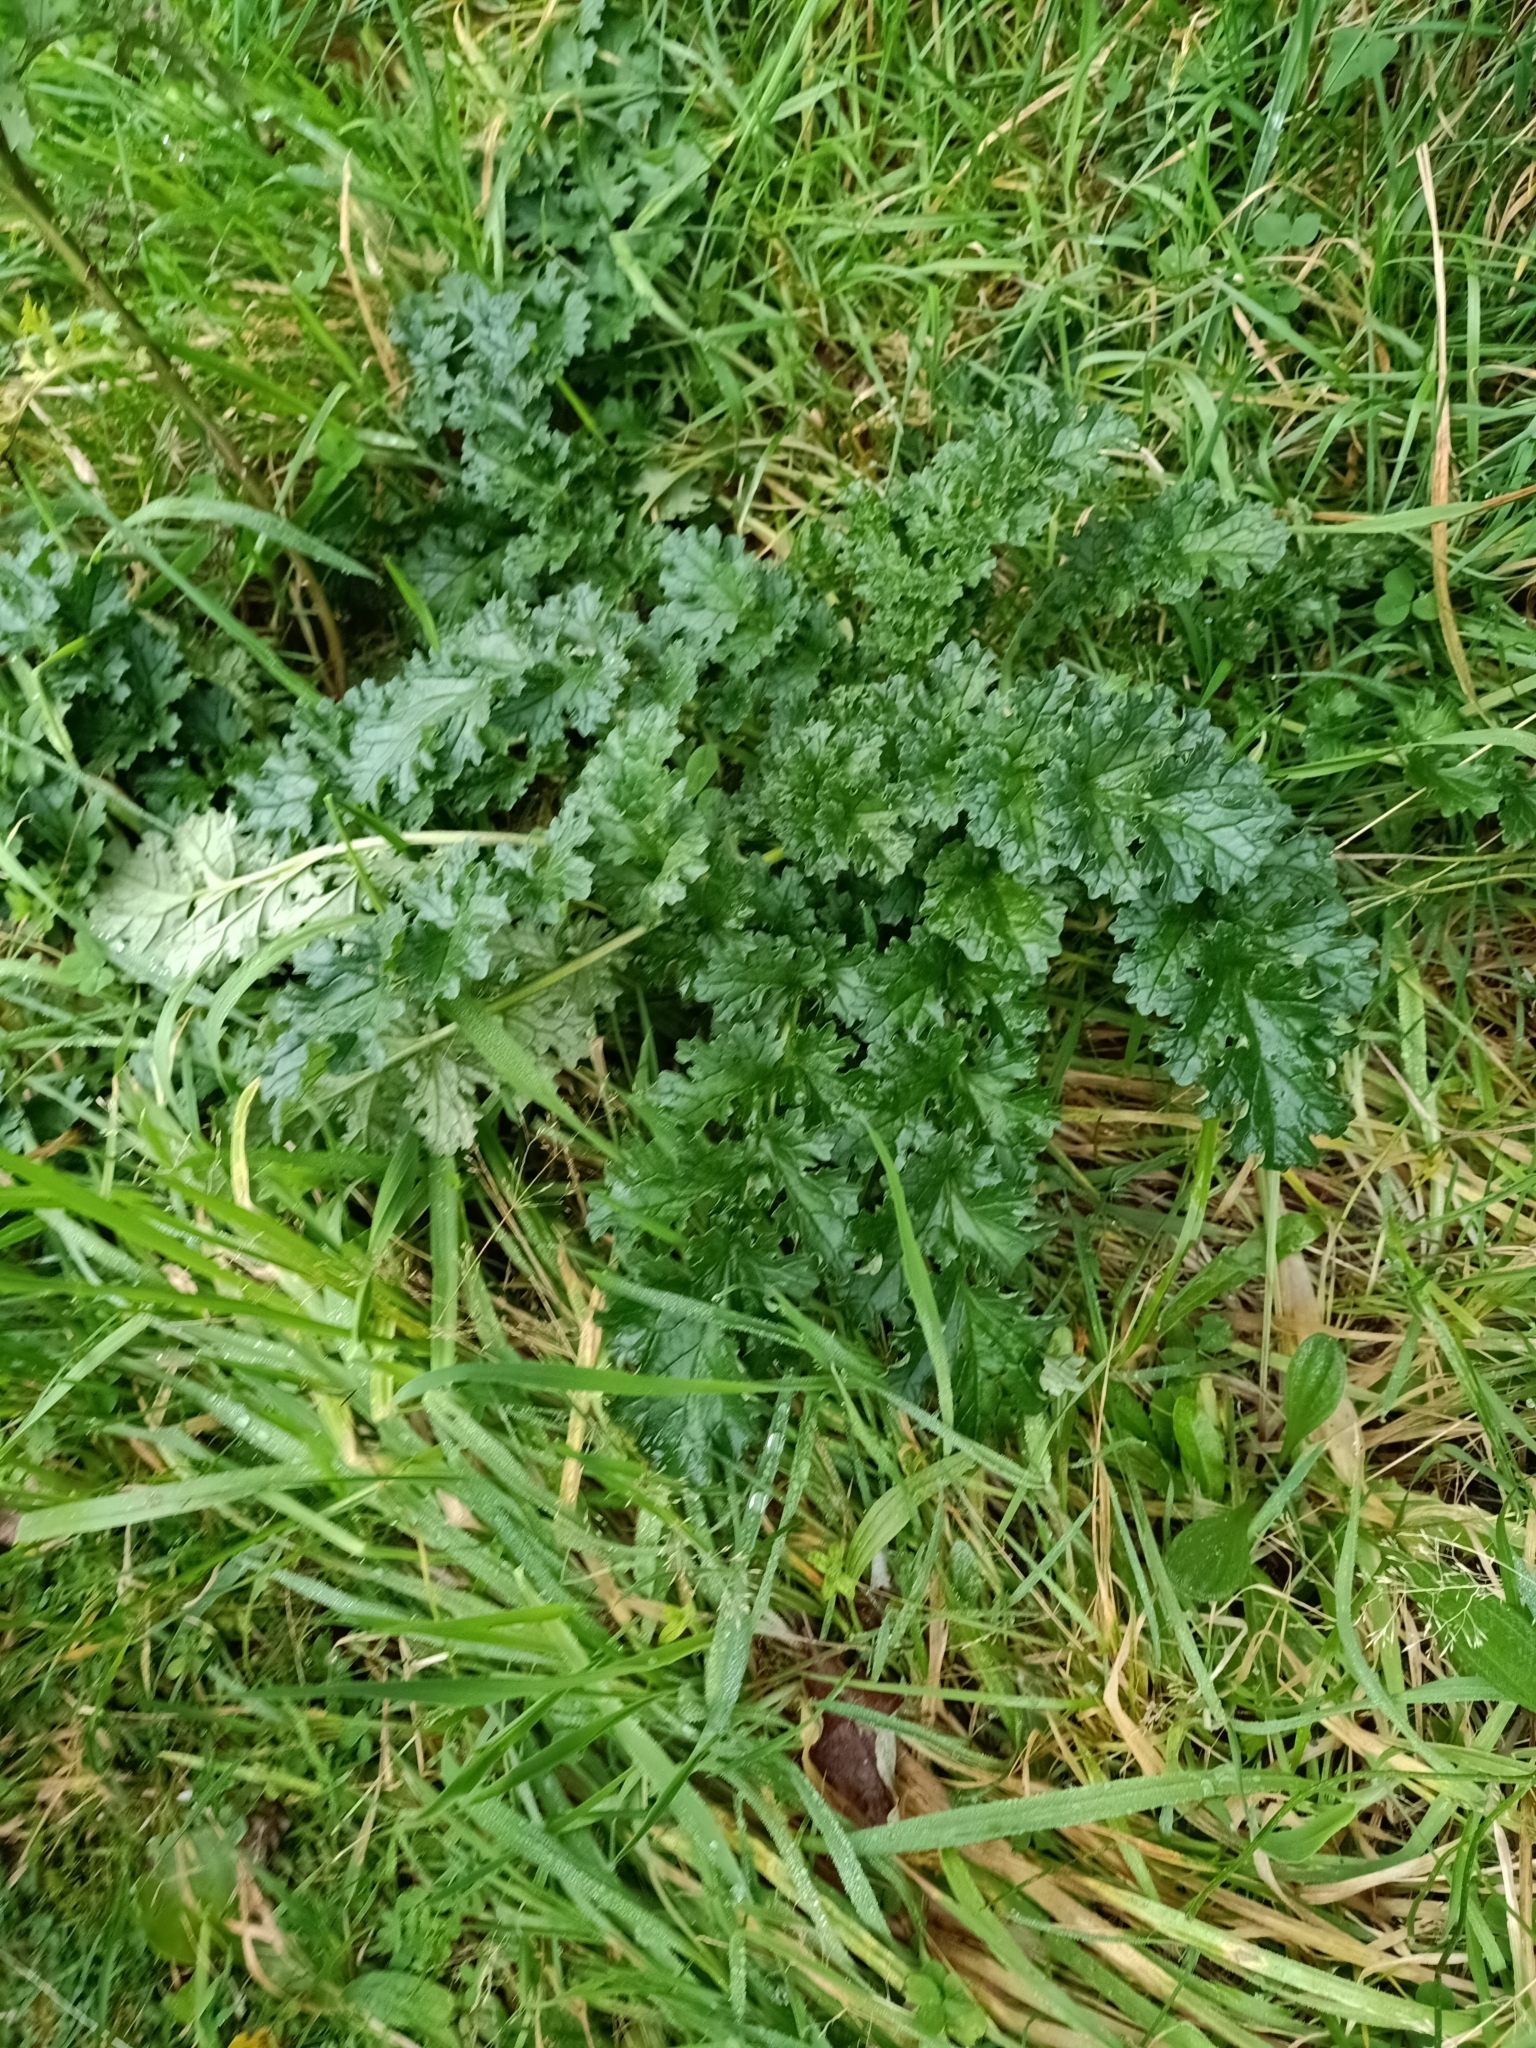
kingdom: Plantae
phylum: Tracheophyta
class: Magnoliopsida
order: Asterales
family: Asteraceae
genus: Jacobaea
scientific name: Jacobaea vulgaris
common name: Stinking willie
